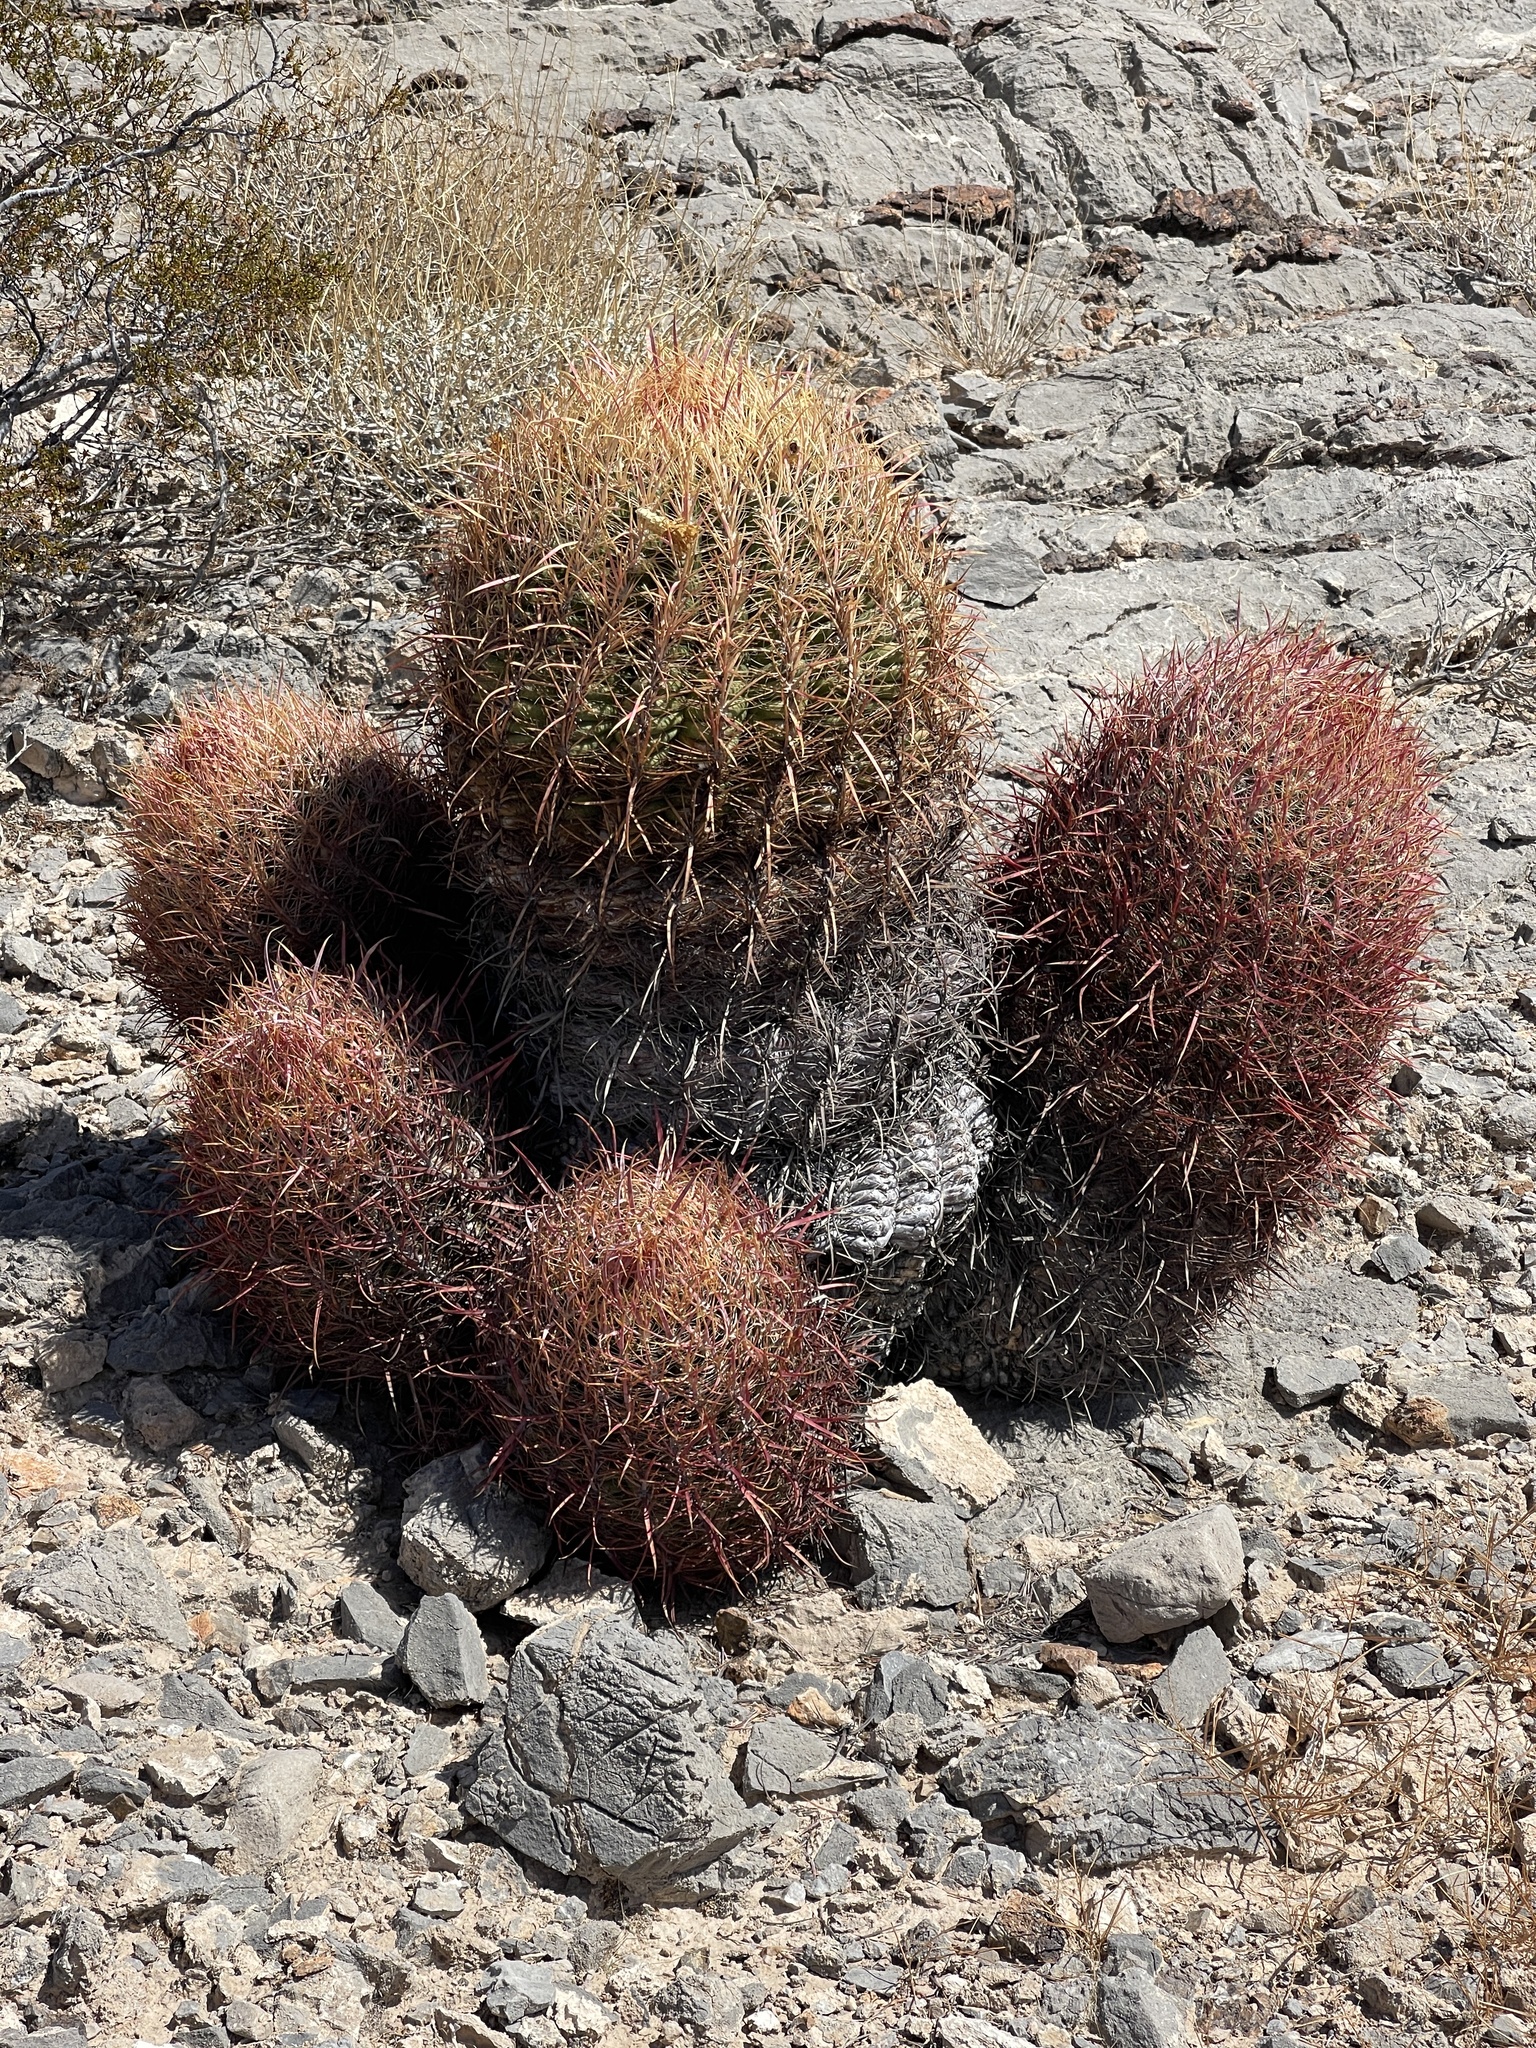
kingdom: Plantae
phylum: Tracheophyta
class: Magnoliopsida
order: Caryophyllales
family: Cactaceae
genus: Ferocactus
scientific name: Ferocactus cylindraceus
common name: California barrel cactus
